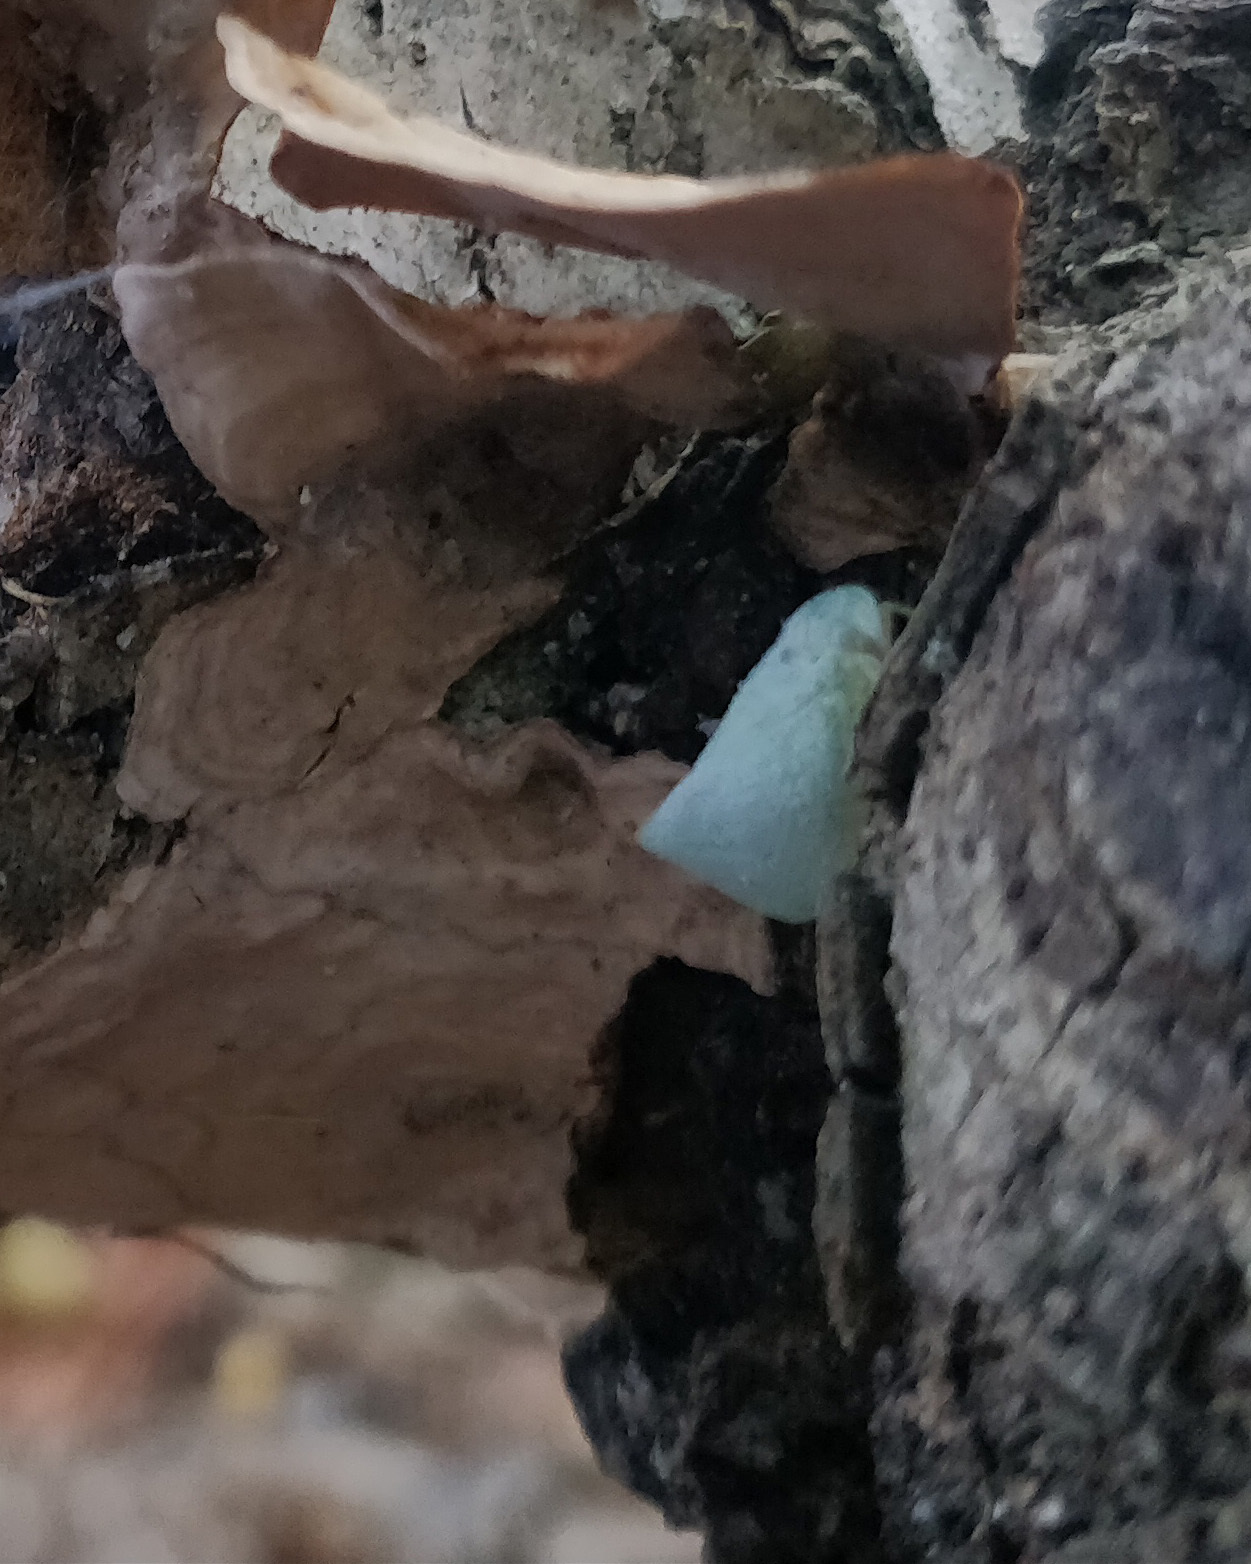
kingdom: Animalia
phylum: Arthropoda
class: Insecta
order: Hemiptera
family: Flatidae
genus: Flatormenis
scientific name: Flatormenis proxima
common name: Northern flatid planthopper
